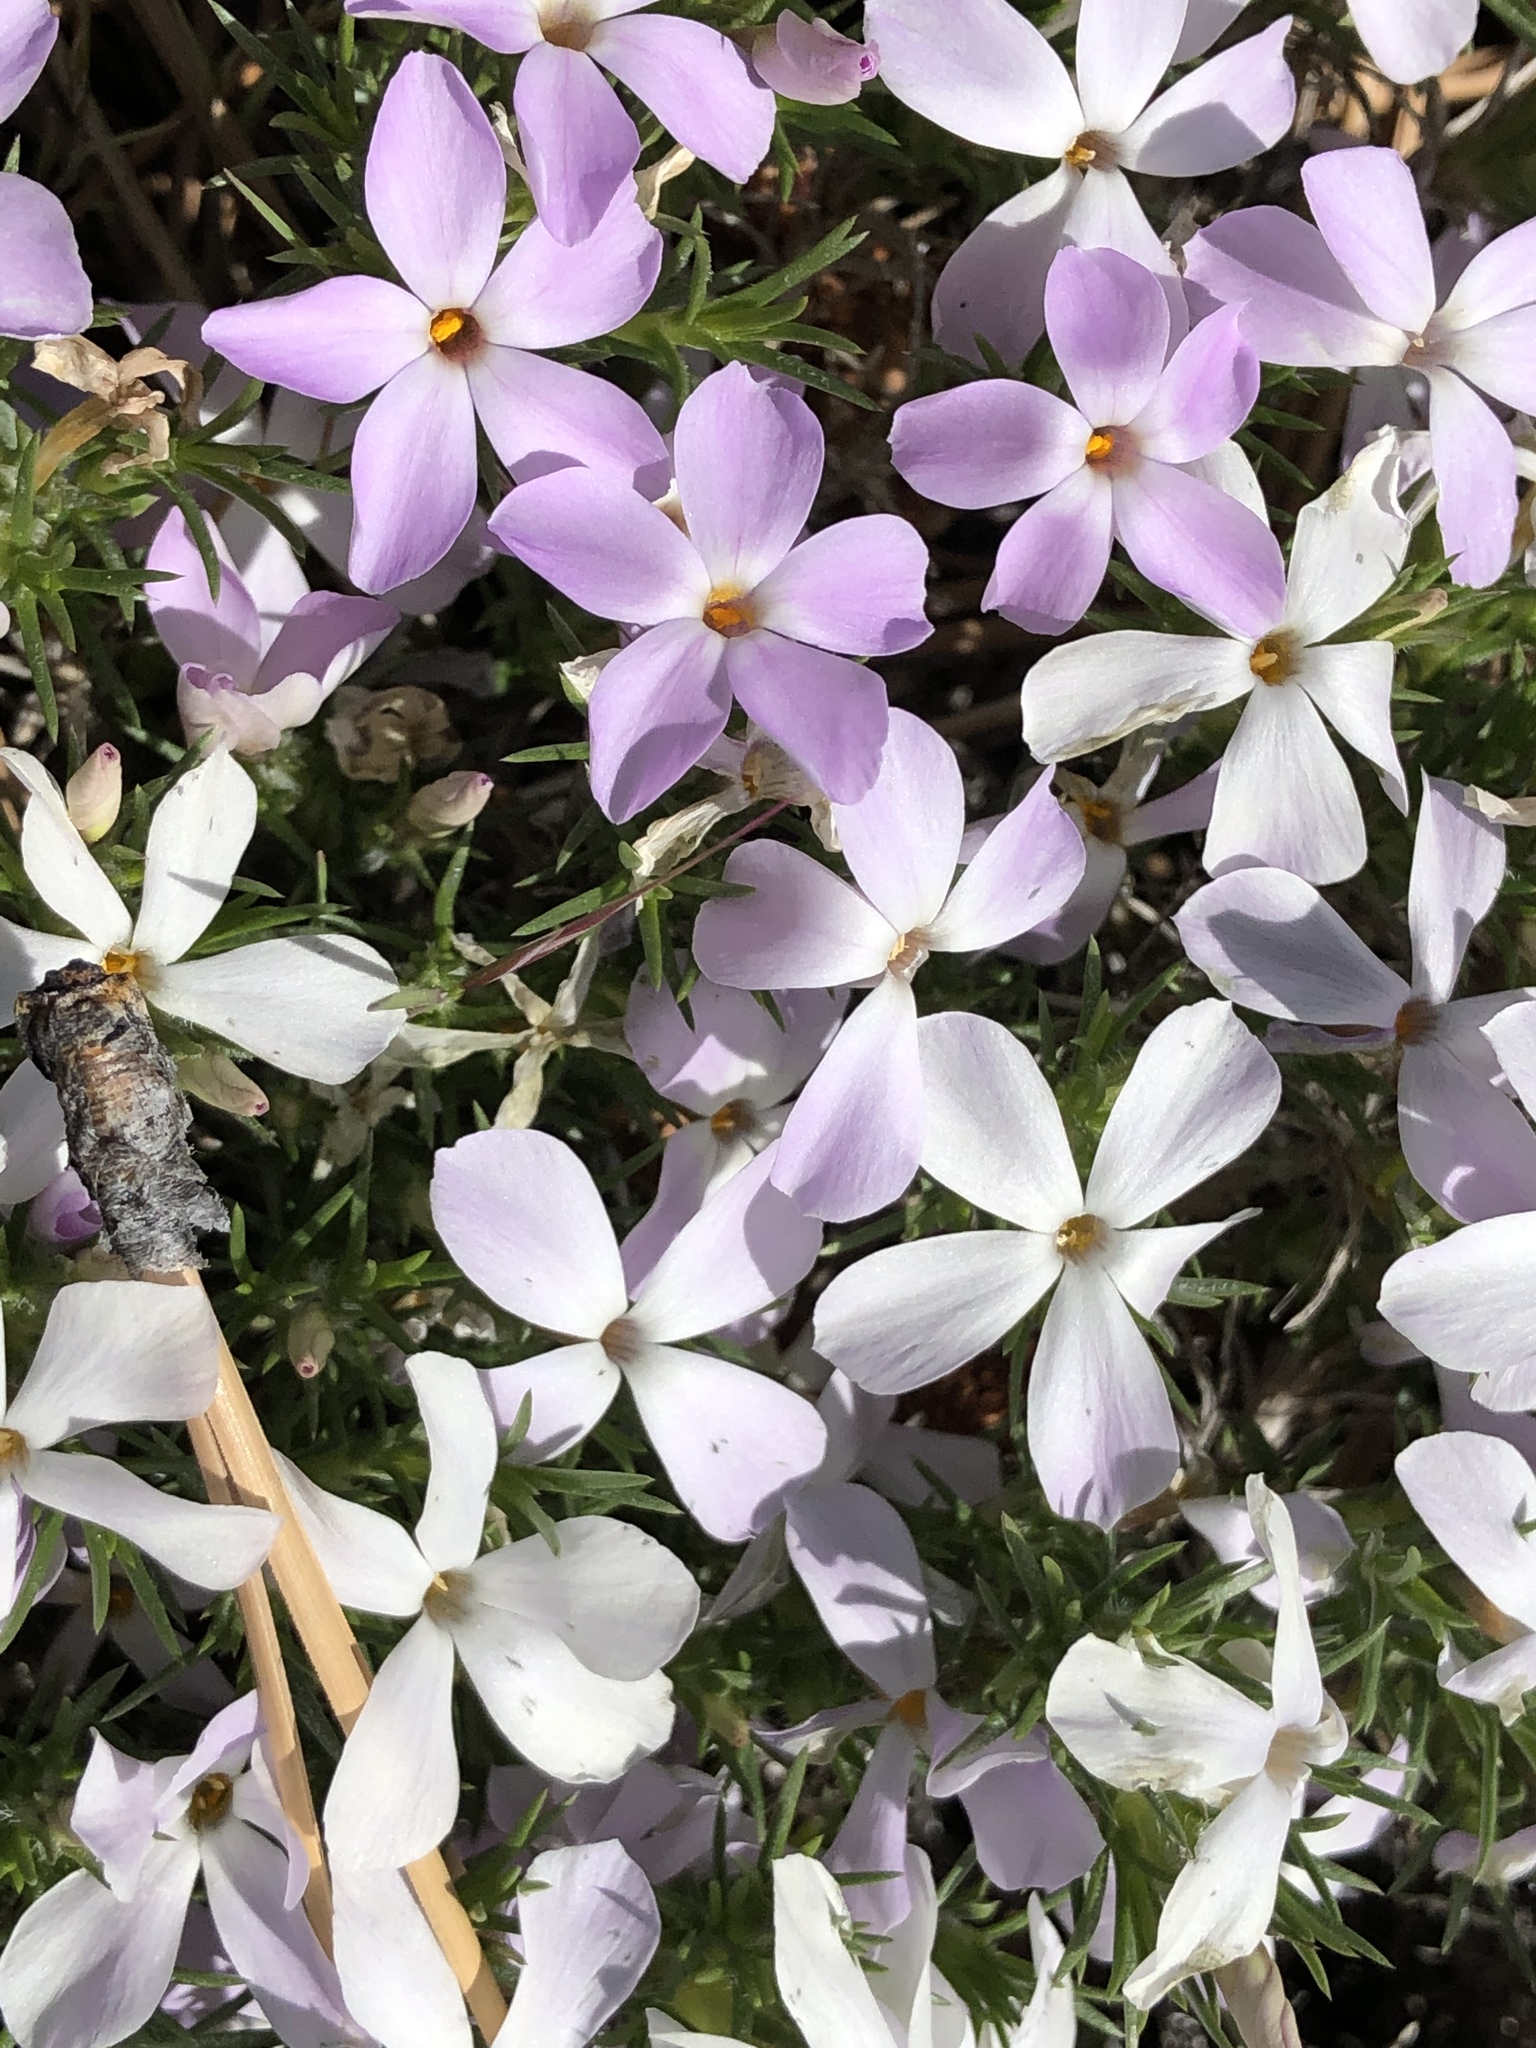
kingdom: Plantae
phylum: Tracheophyta
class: Magnoliopsida
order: Ericales
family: Polemoniaceae
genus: Phlox
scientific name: Phlox diffusa
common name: Mat phlox
